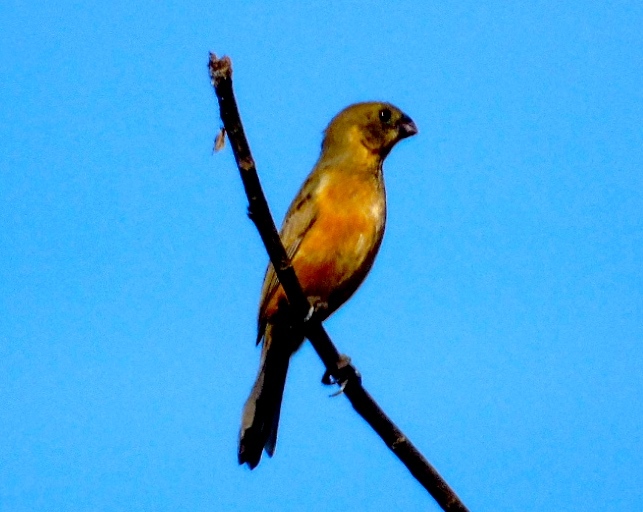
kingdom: Animalia
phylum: Chordata
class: Aves
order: Passeriformes
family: Thraupidae
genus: Sporophila
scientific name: Sporophila torqueola
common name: White-collared seedeater
